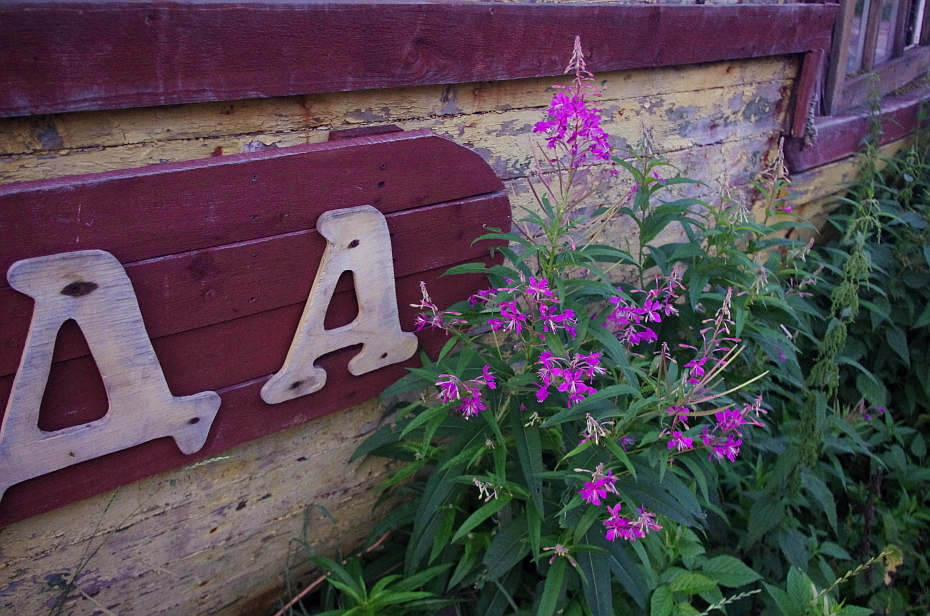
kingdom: Plantae
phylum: Tracheophyta
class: Magnoliopsida
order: Myrtales
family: Onagraceae
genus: Chamaenerion
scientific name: Chamaenerion angustifolium
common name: Fireweed
